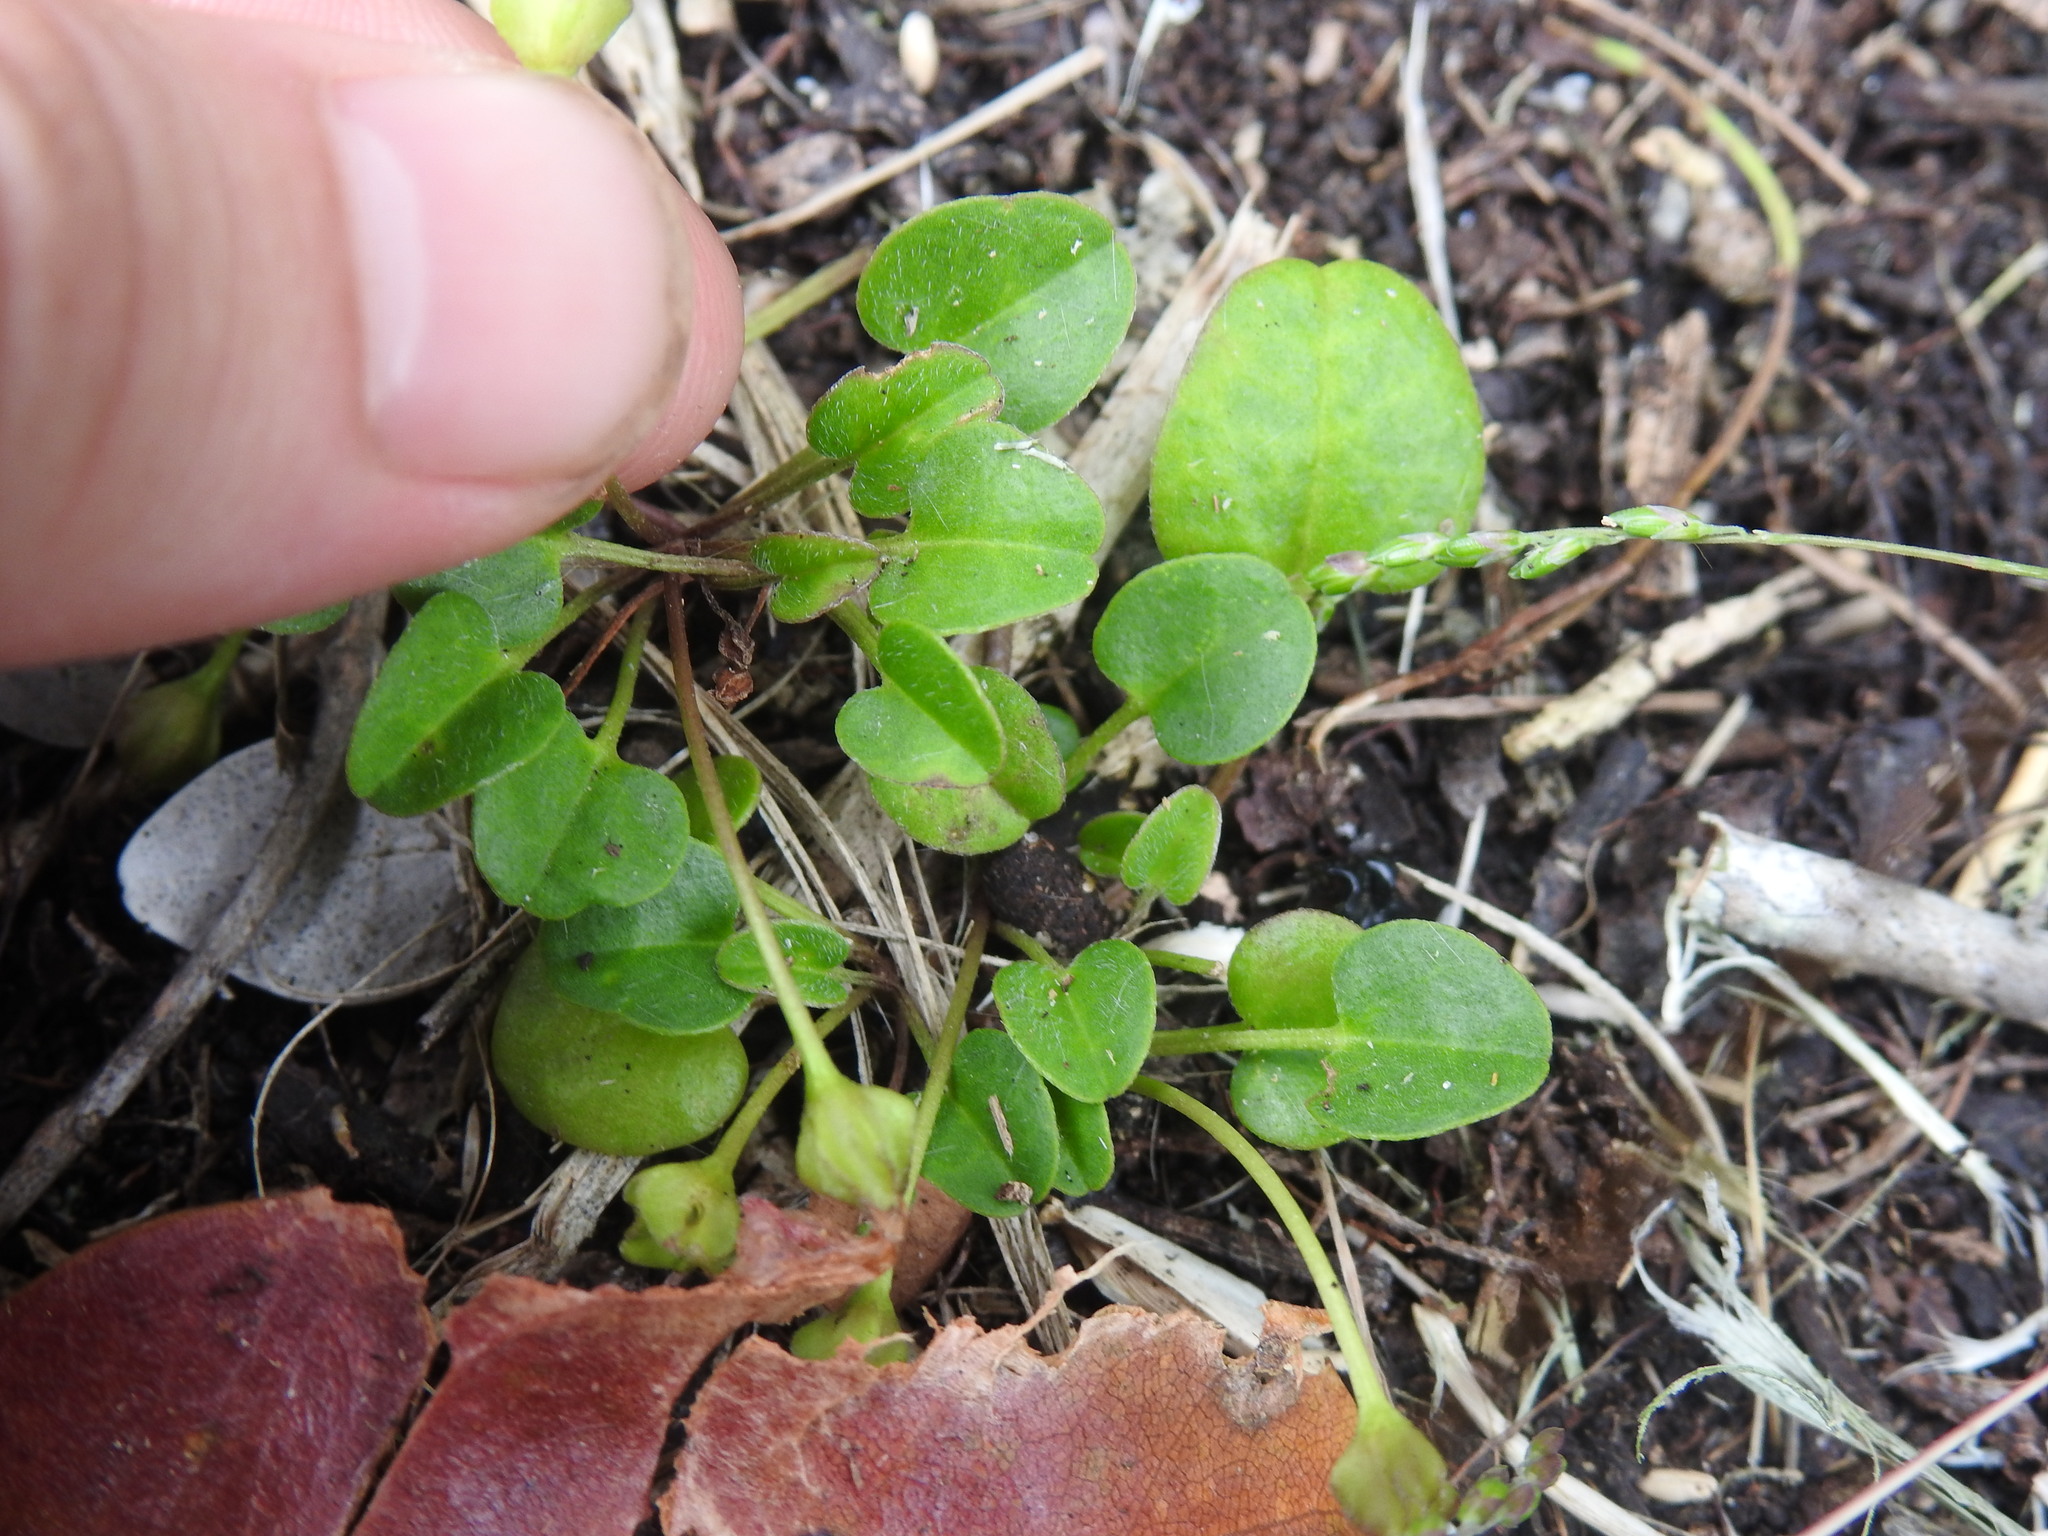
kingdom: Plantae
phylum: Tracheophyta
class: Magnoliopsida
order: Solanales
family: Convolvulaceae
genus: Falkia
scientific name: Falkia repens
